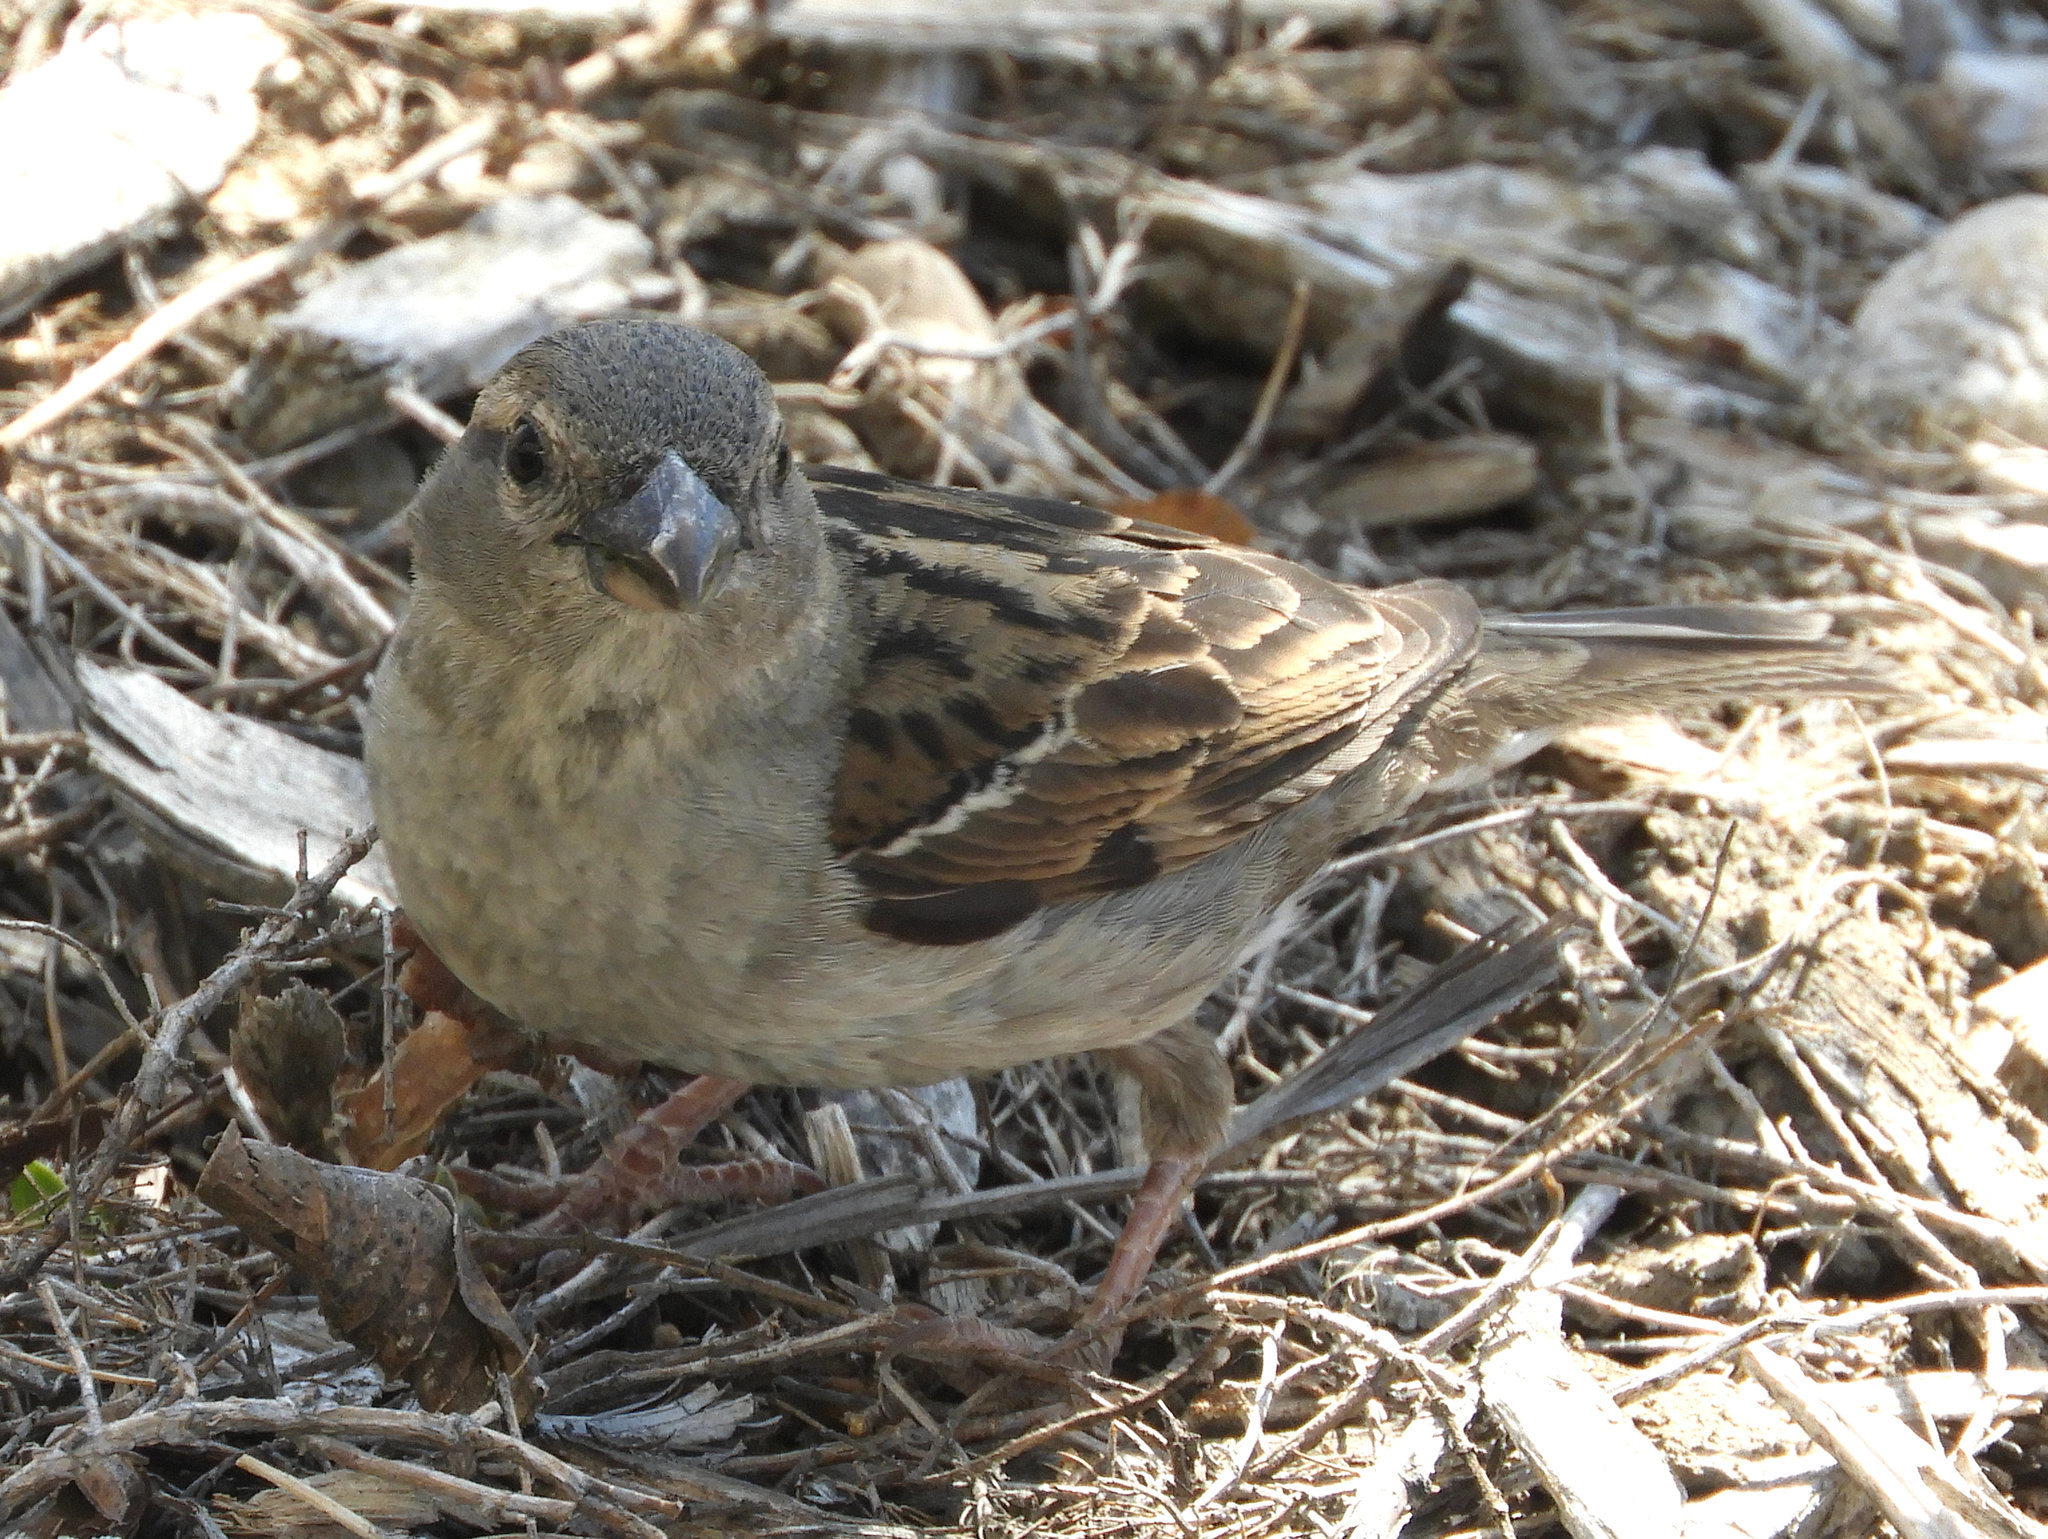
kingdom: Animalia
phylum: Chordata
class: Aves
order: Passeriformes
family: Passeridae
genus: Passer
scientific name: Passer domesticus
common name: House sparrow
